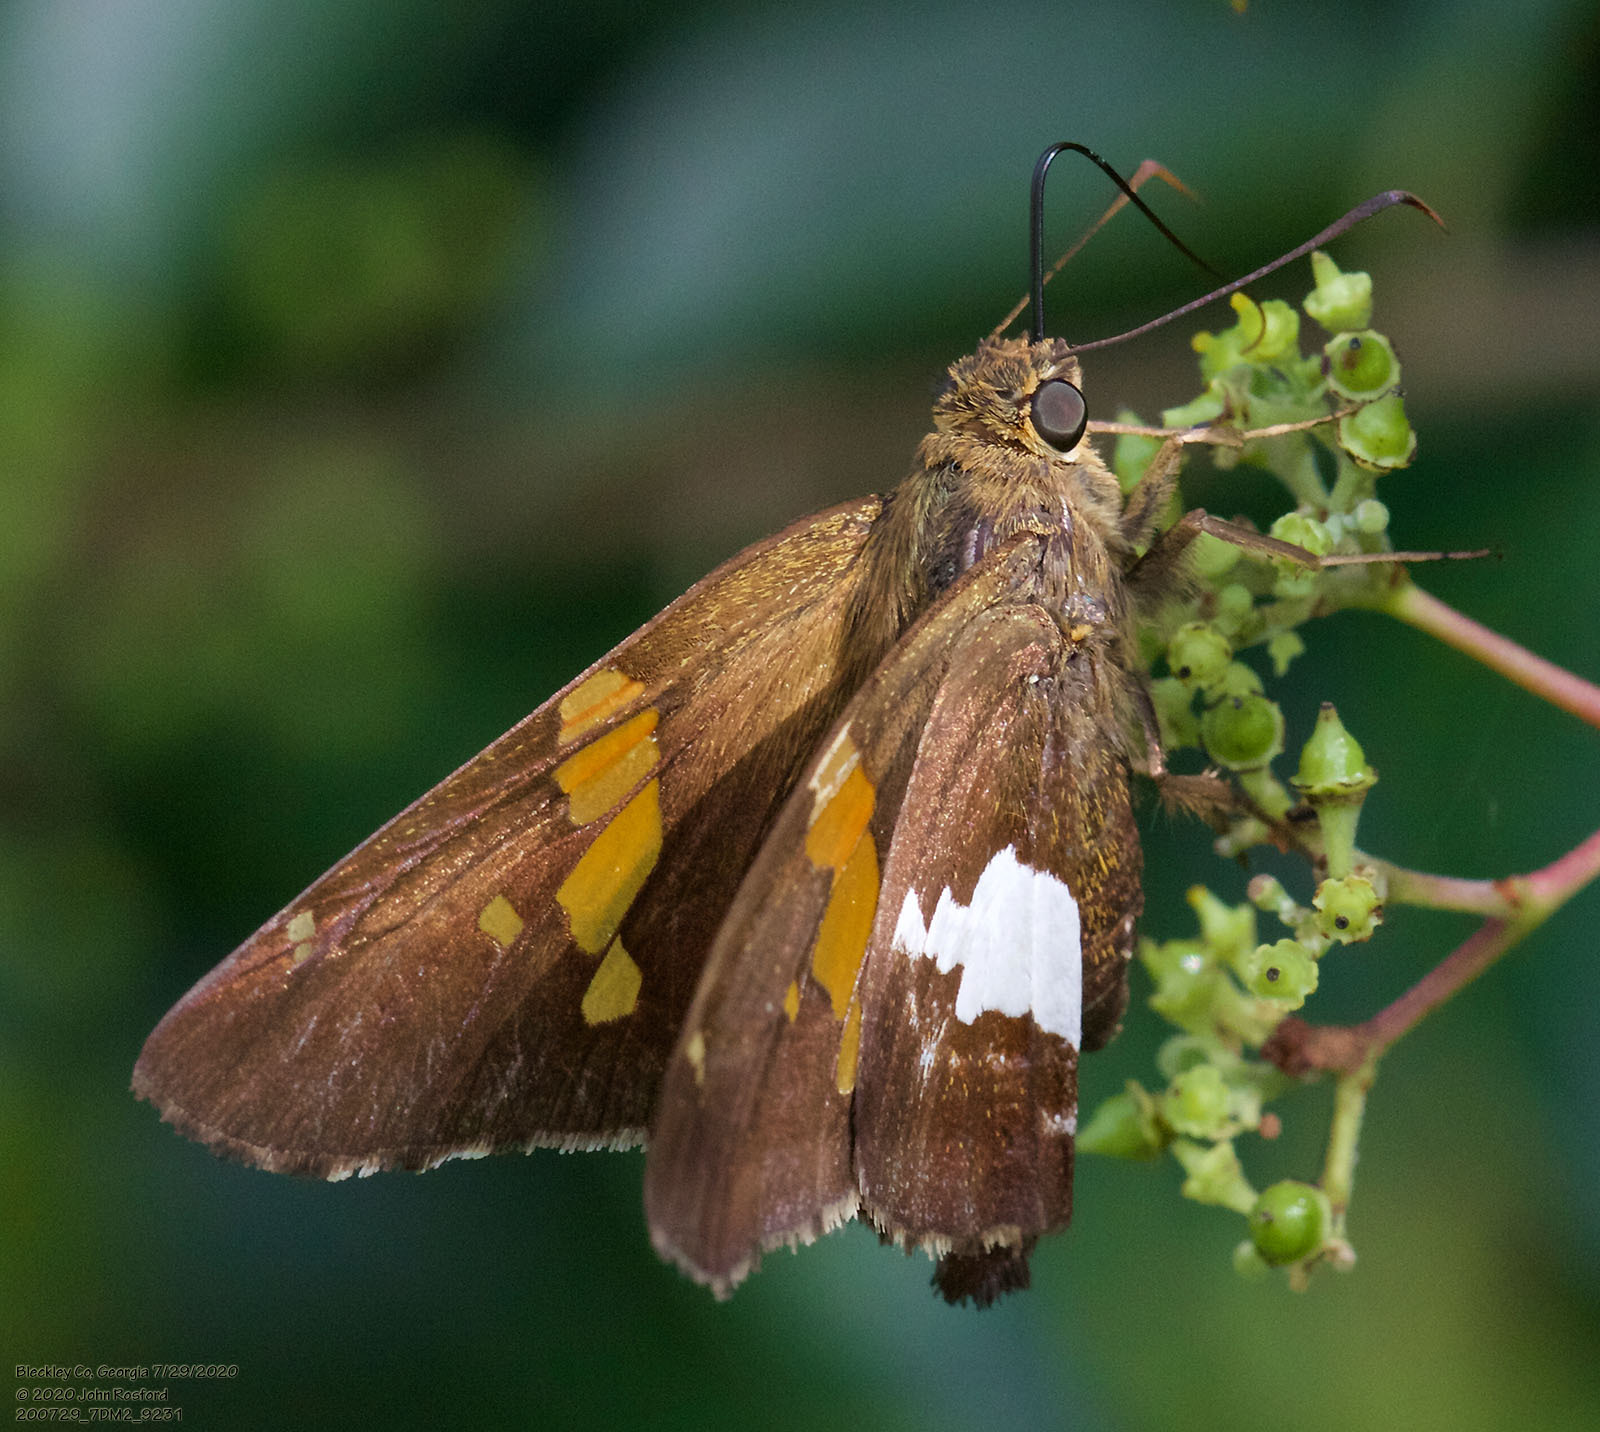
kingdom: Animalia
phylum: Arthropoda
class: Insecta
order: Lepidoptera
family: Hesperiidae
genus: Epargyreus
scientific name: Epargyreus clarus
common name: Silver-spotted skipper
